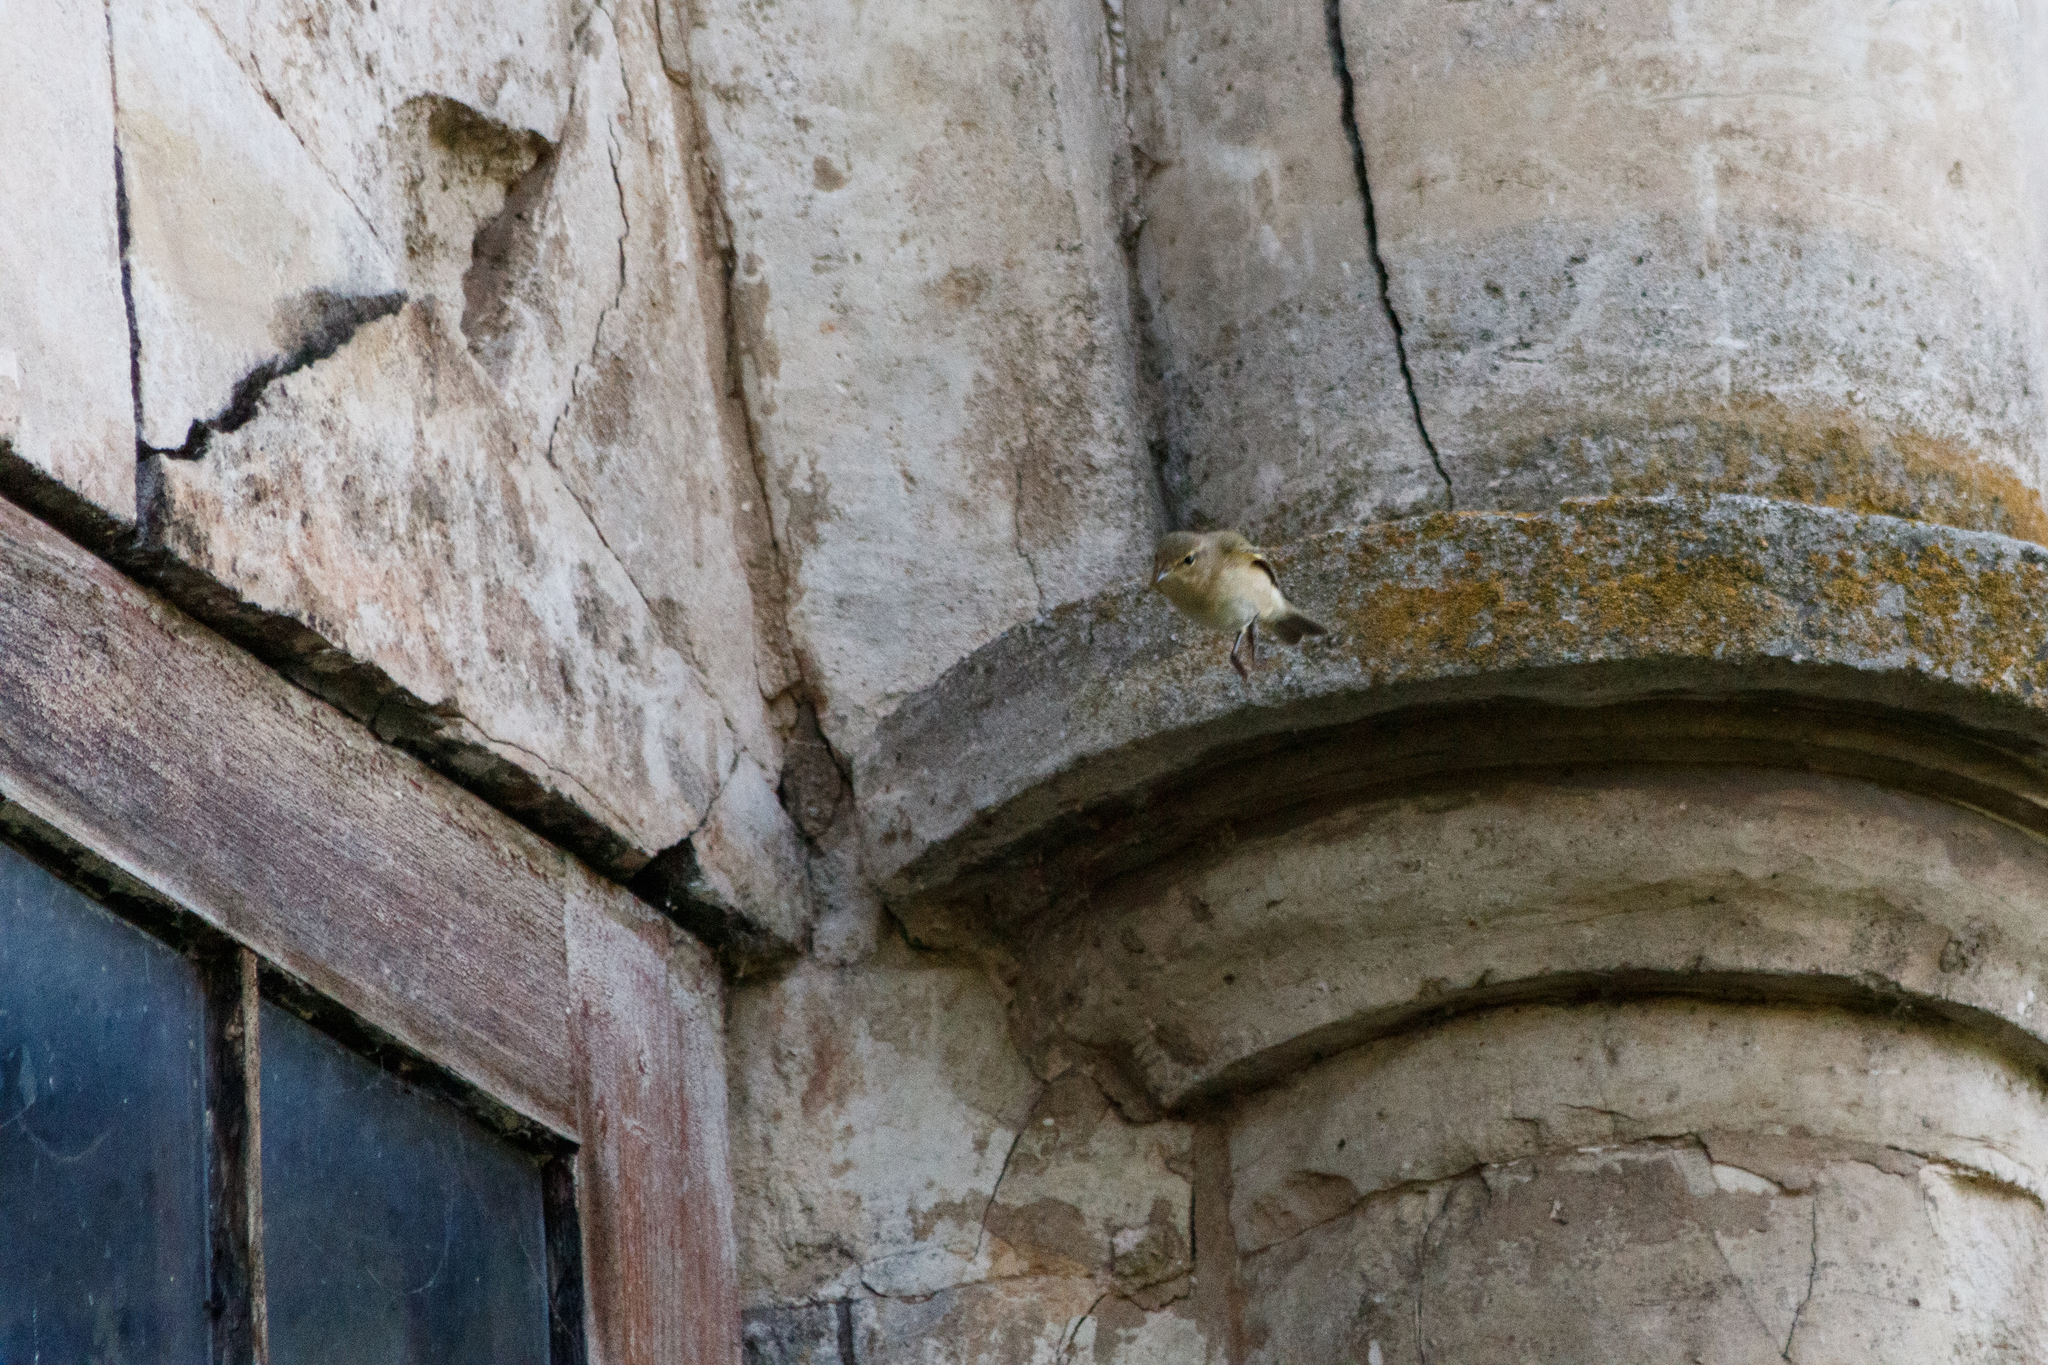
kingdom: Animalia
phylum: Chordata
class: Aves
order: Passeriformes
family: Phylloscopidae
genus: Phylloscopus
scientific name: Phylloscopus collybita
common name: Common chiffchaff
